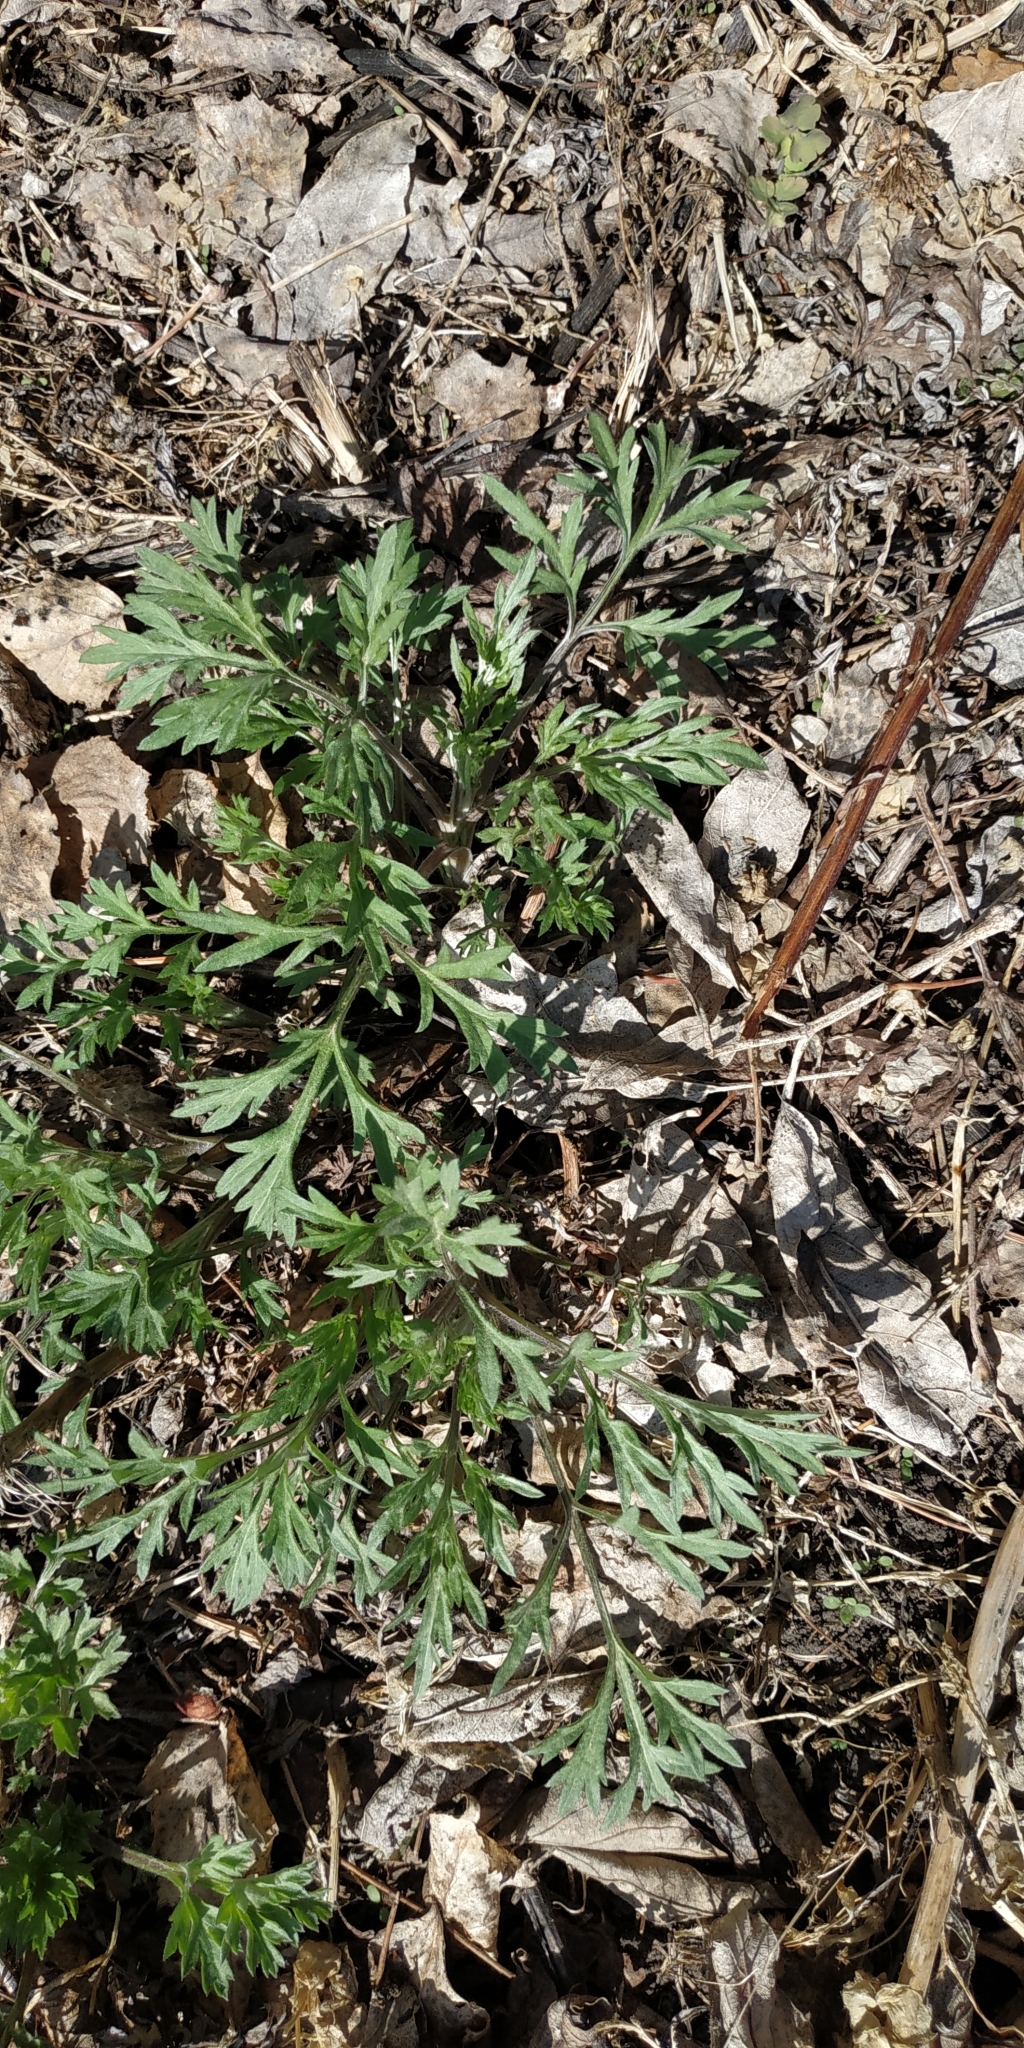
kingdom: Plantae
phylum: Tracheophyta
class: Magnoliopsida
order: Asterales
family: Asteraceae
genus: Artemisia
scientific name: Artemisia vulgaris
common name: Mugwort
